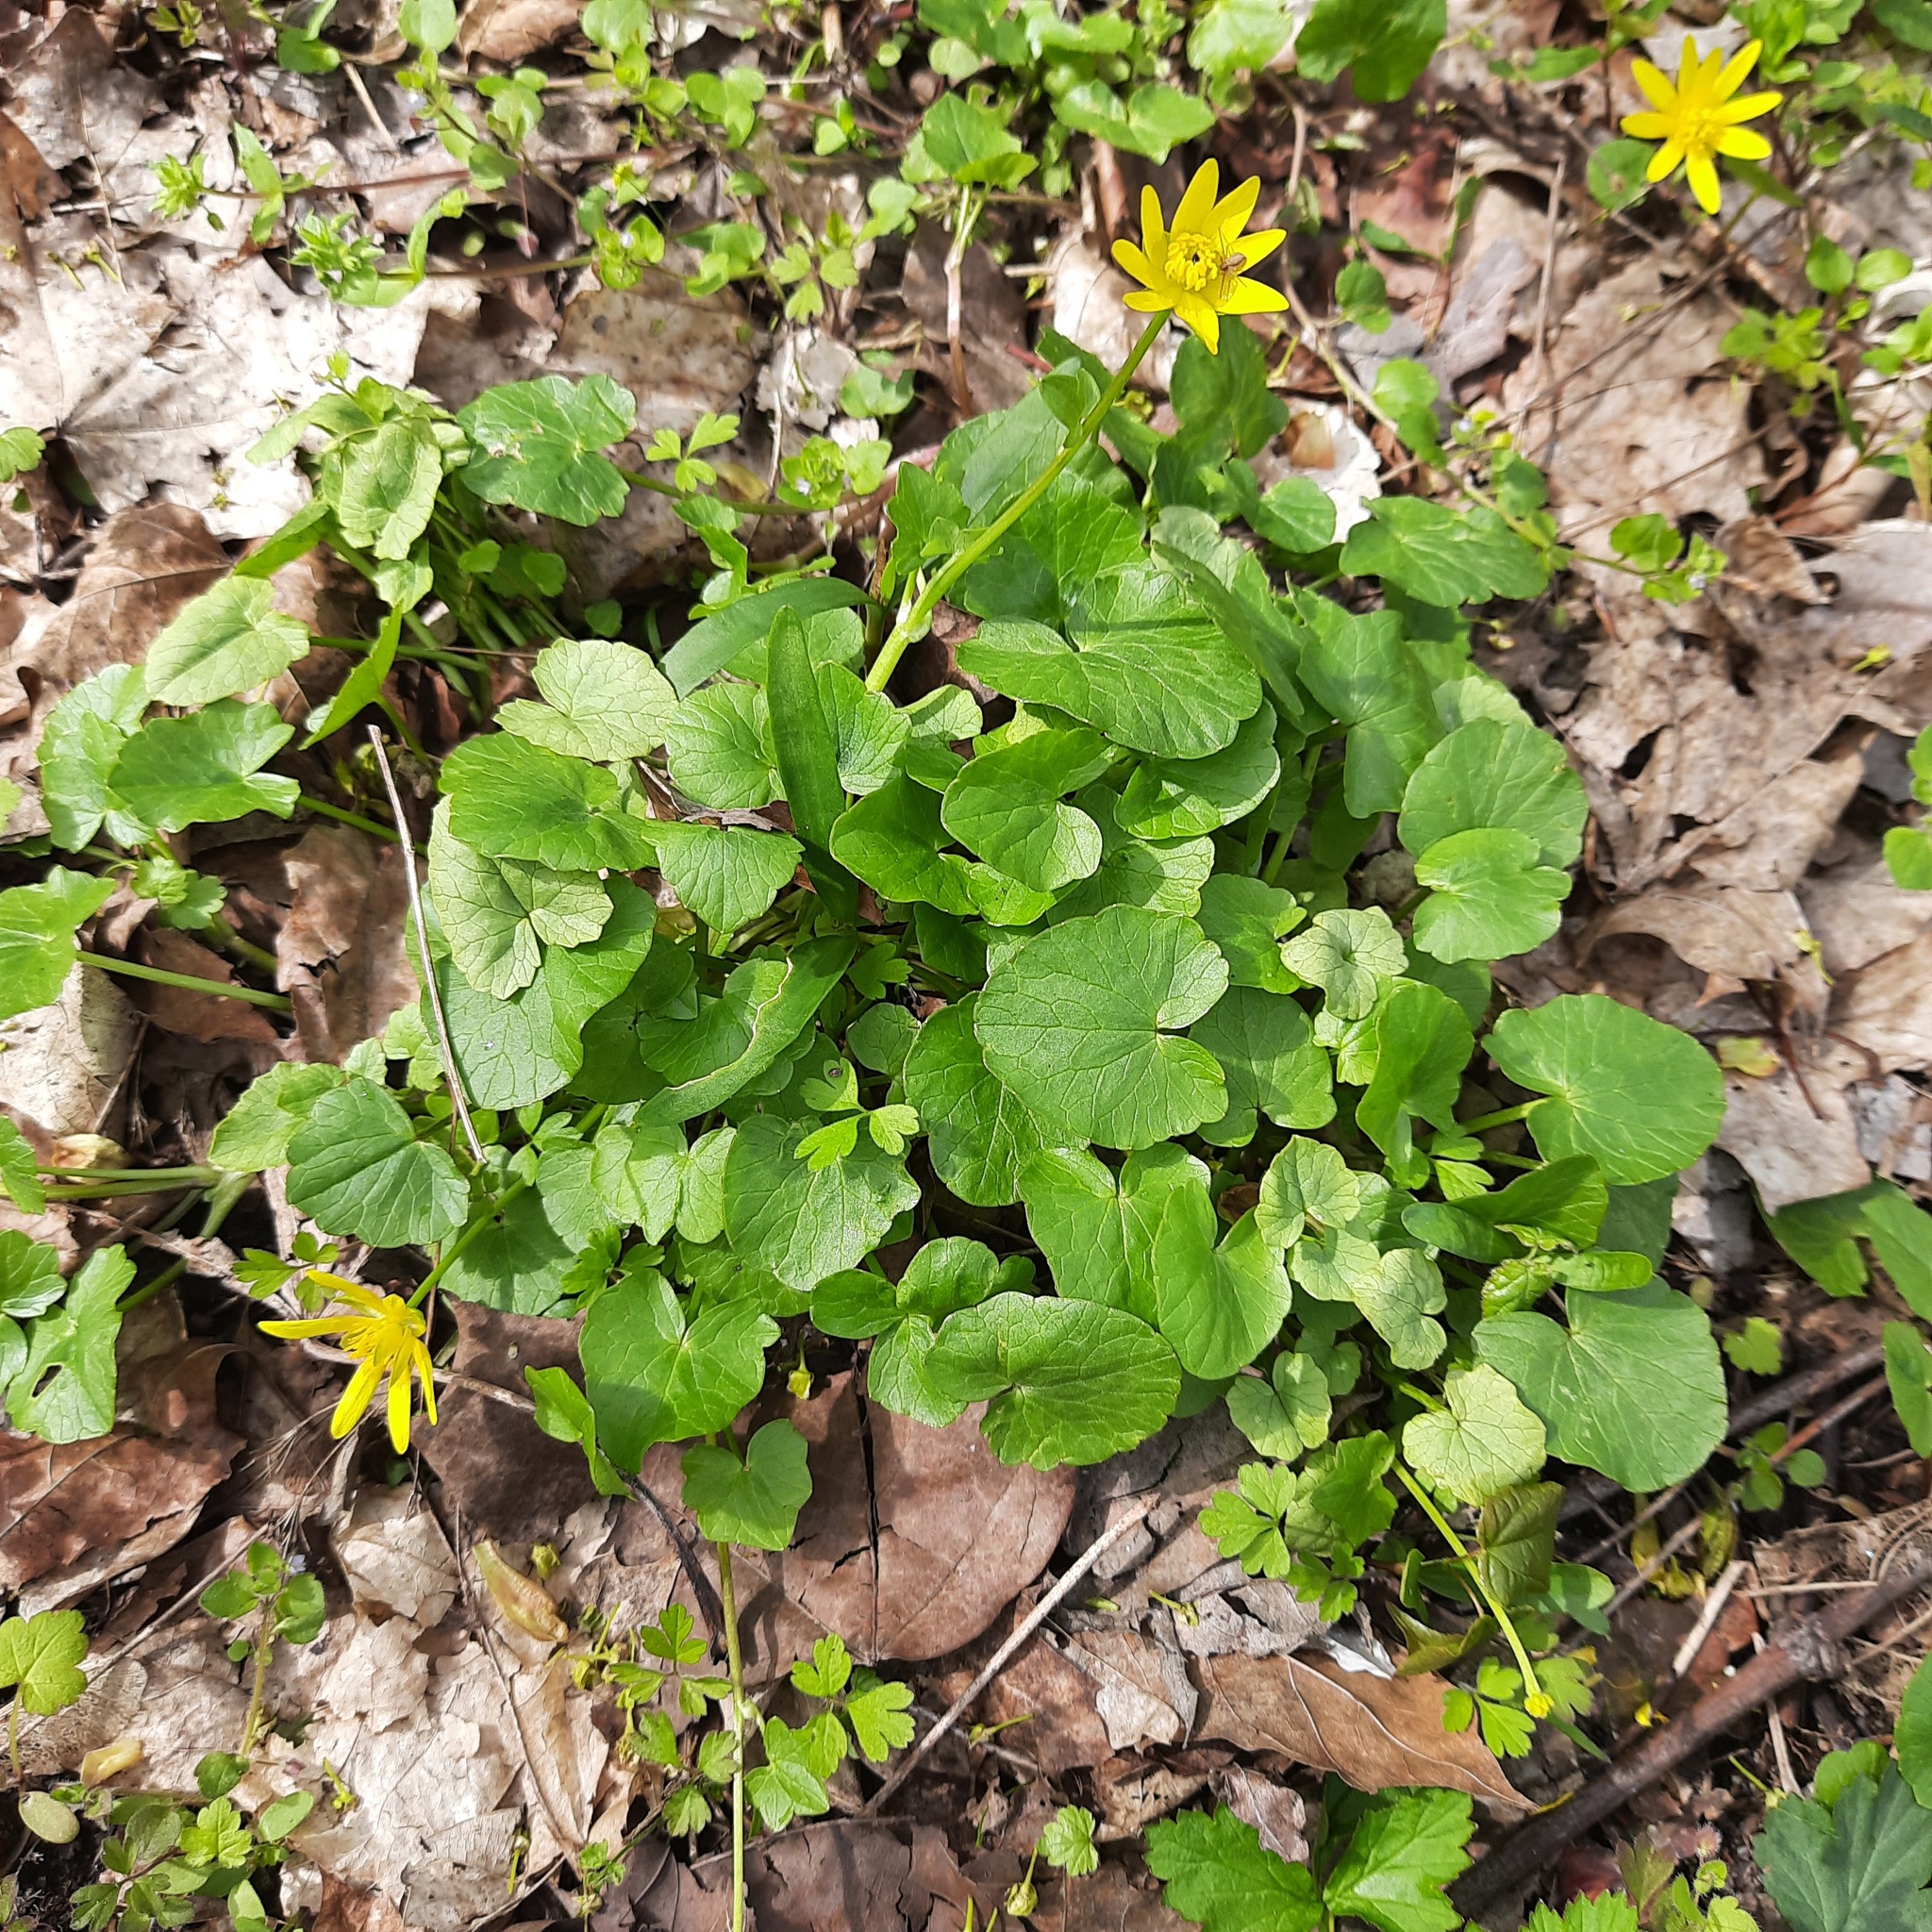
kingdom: Plantae
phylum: Tracheophyta
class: Magnoliopsida
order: Ranunculales
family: Ranunculaceae
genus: Ficaria
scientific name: Ficaria verna
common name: Lesser celandine
